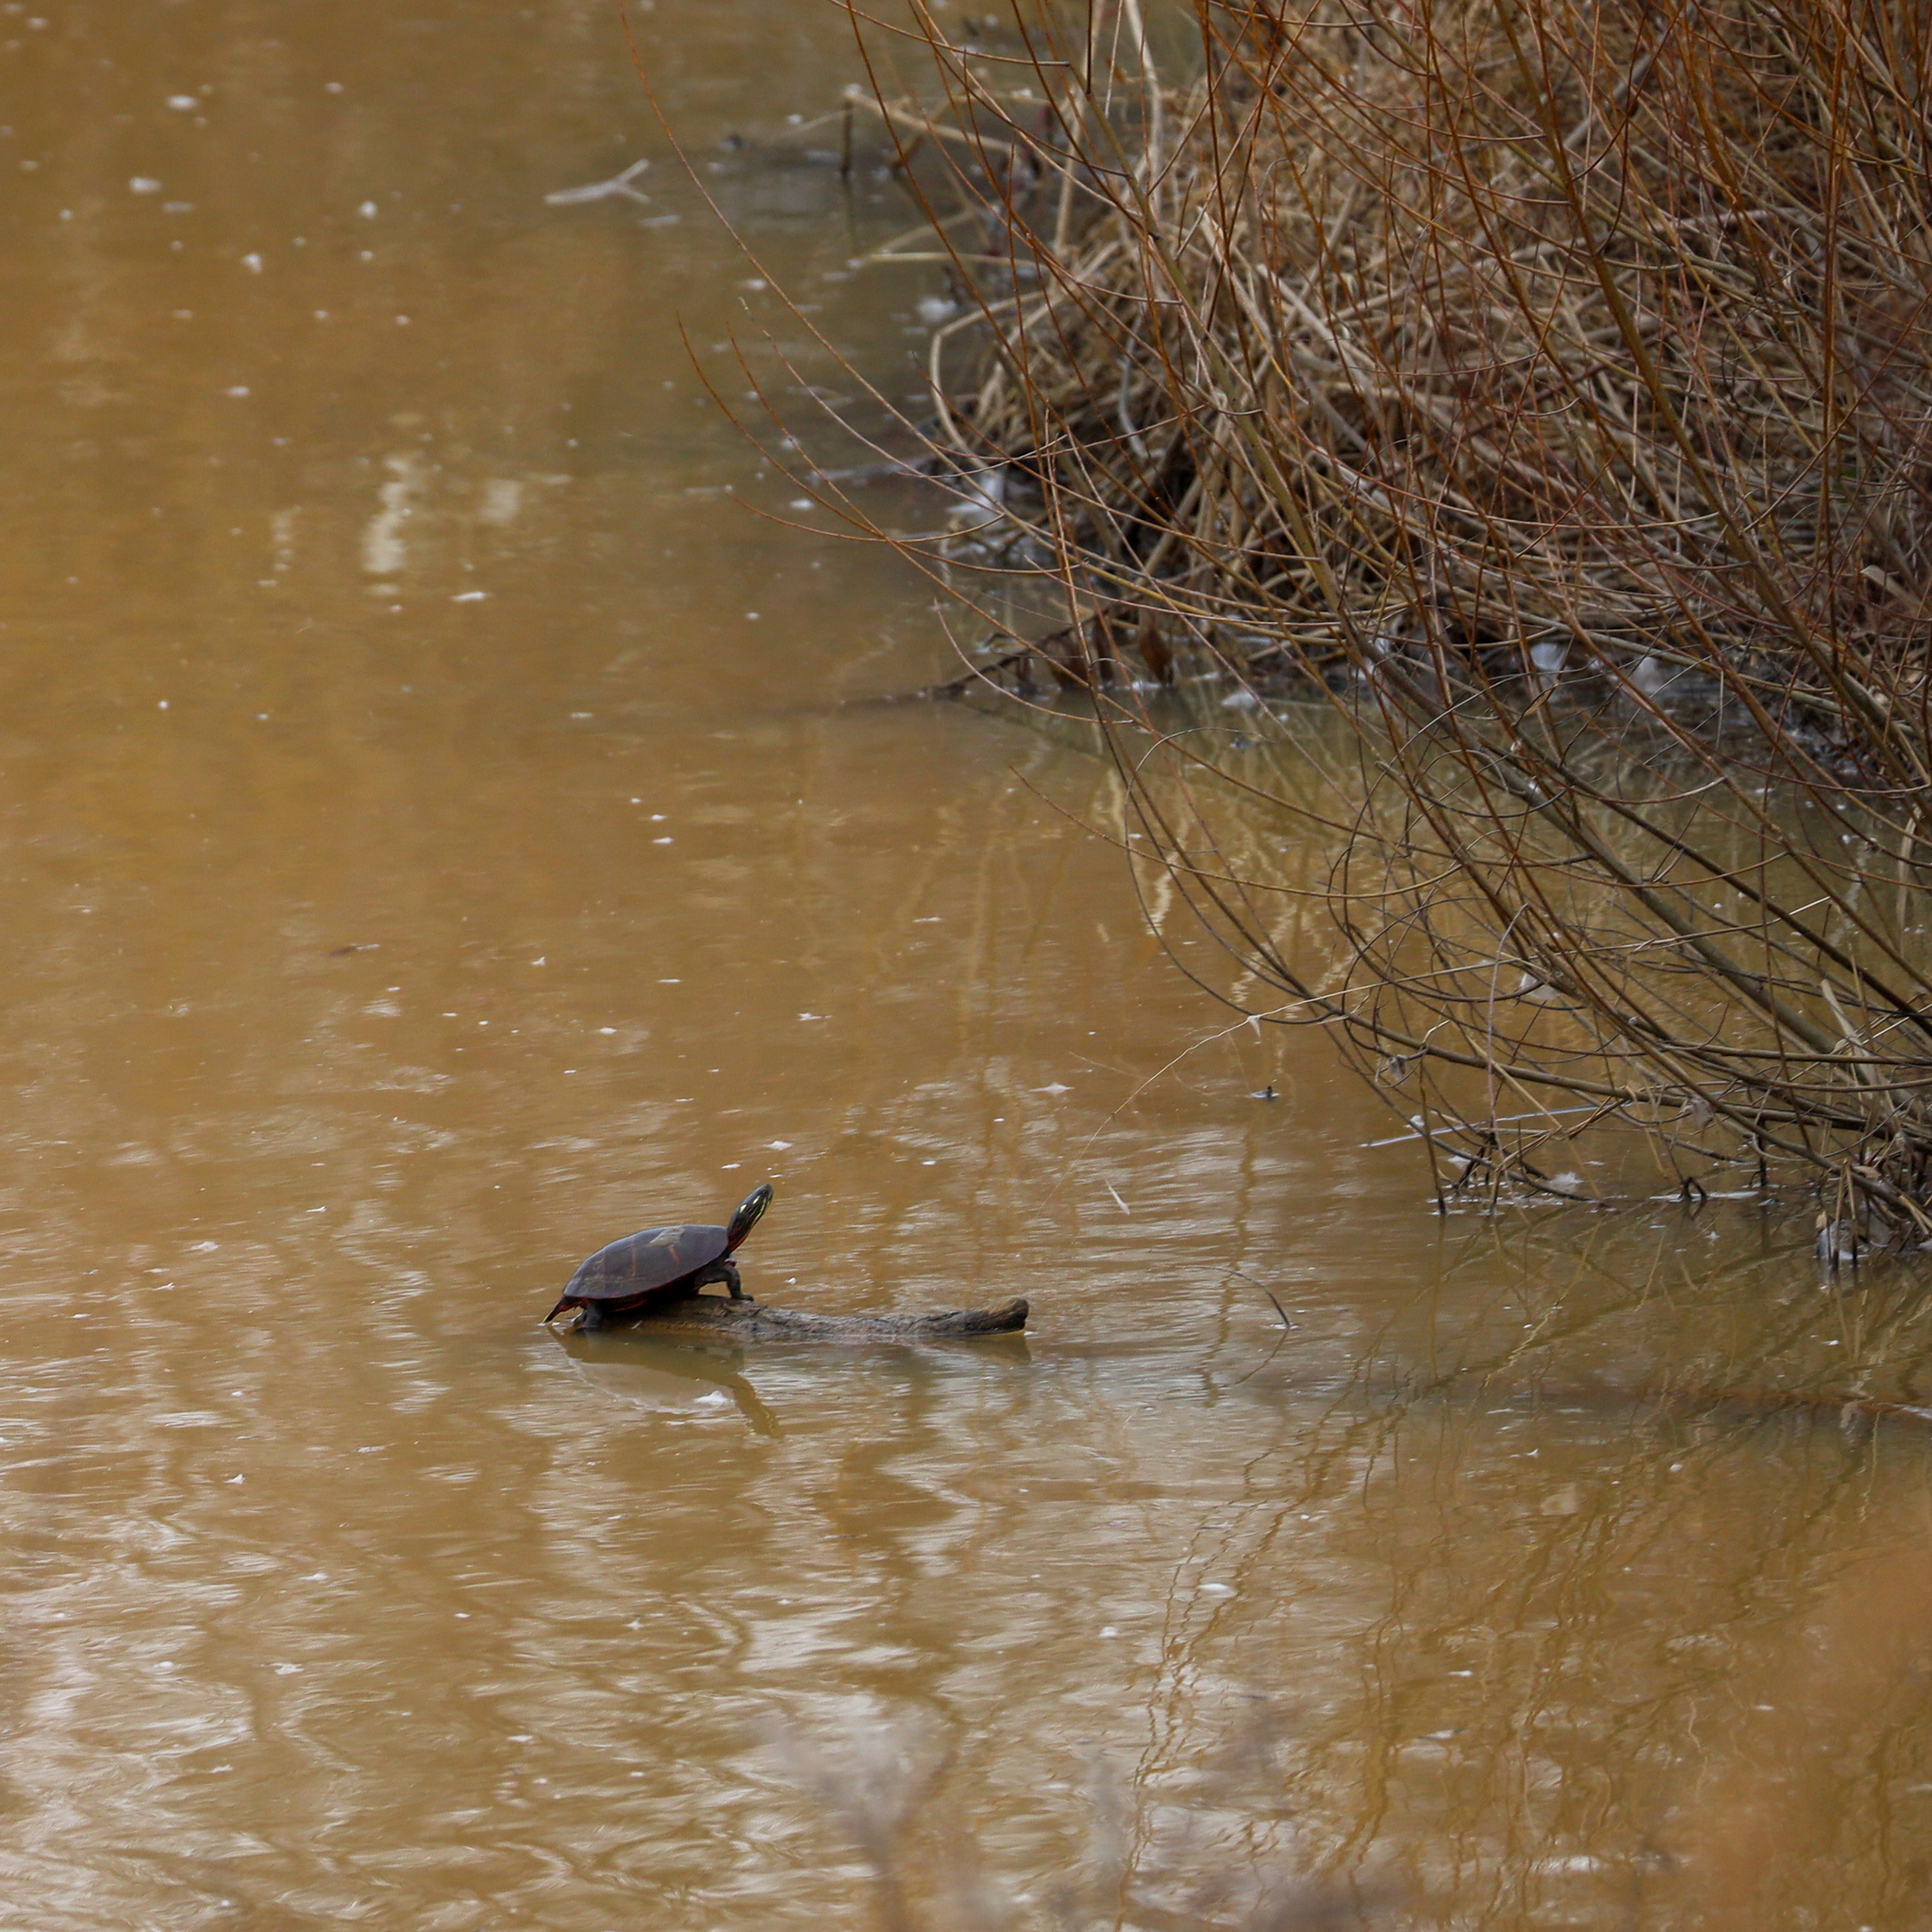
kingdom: Animalia
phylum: Chordata
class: Testudines
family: Emydidae
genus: Chrysemys
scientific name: Chrysemys picta
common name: Painted turtle
